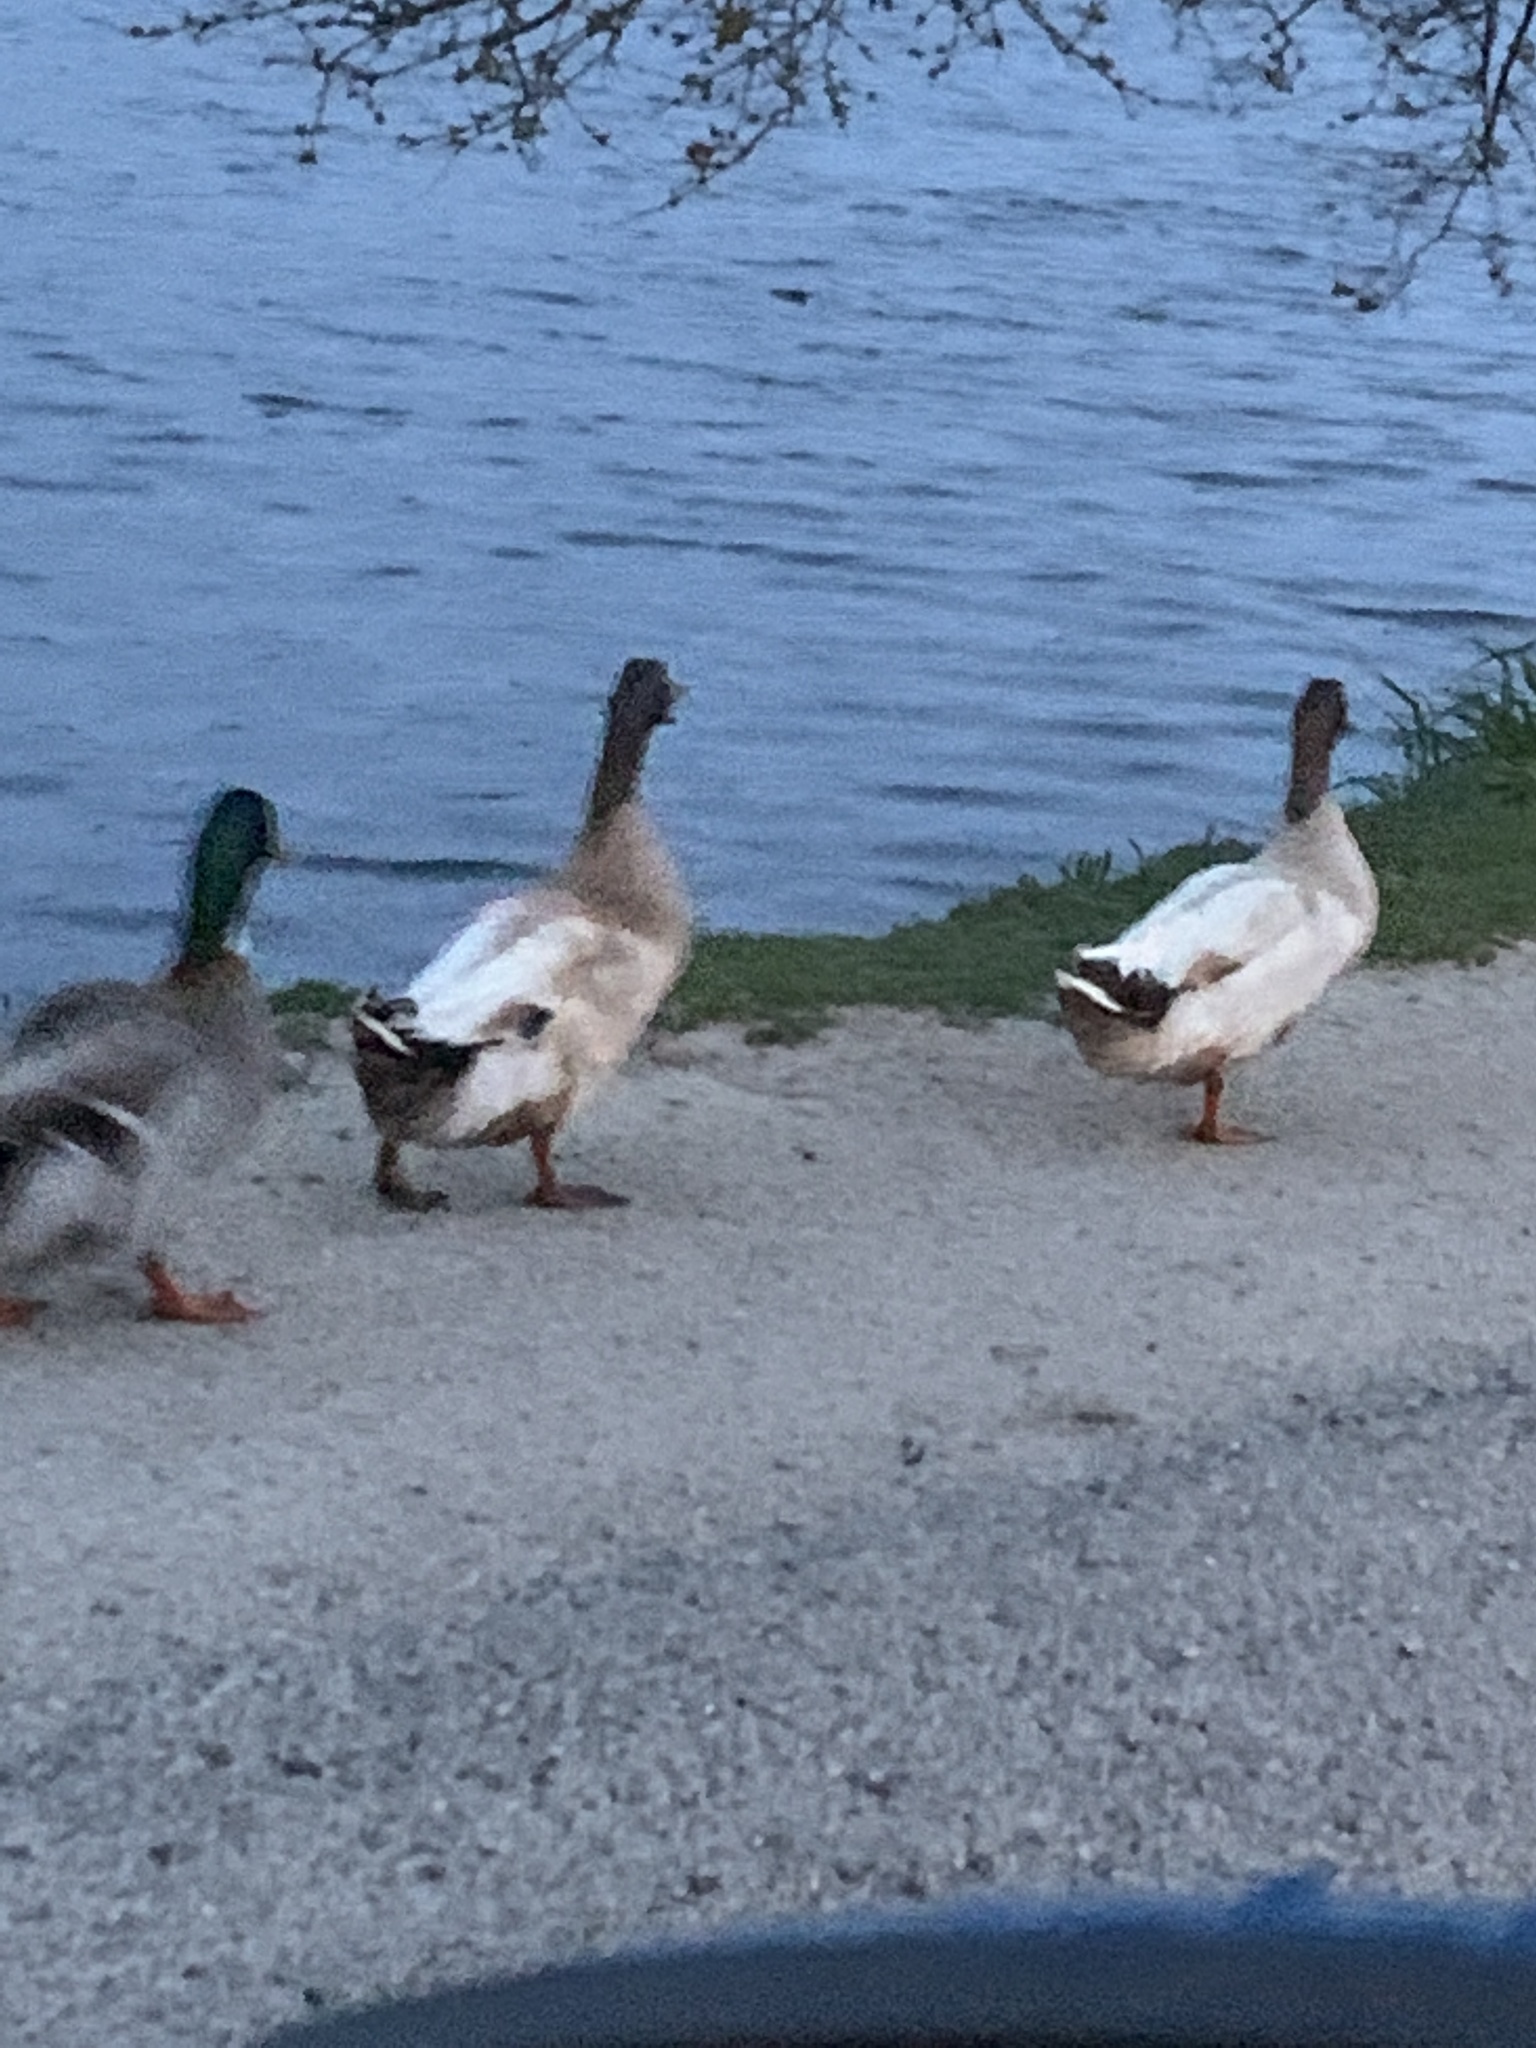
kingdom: Animalia
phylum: Chordata
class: Aves
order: Anseriformes
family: Anatidae
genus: Anas
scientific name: Anas platyrhynchos
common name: Mallard
